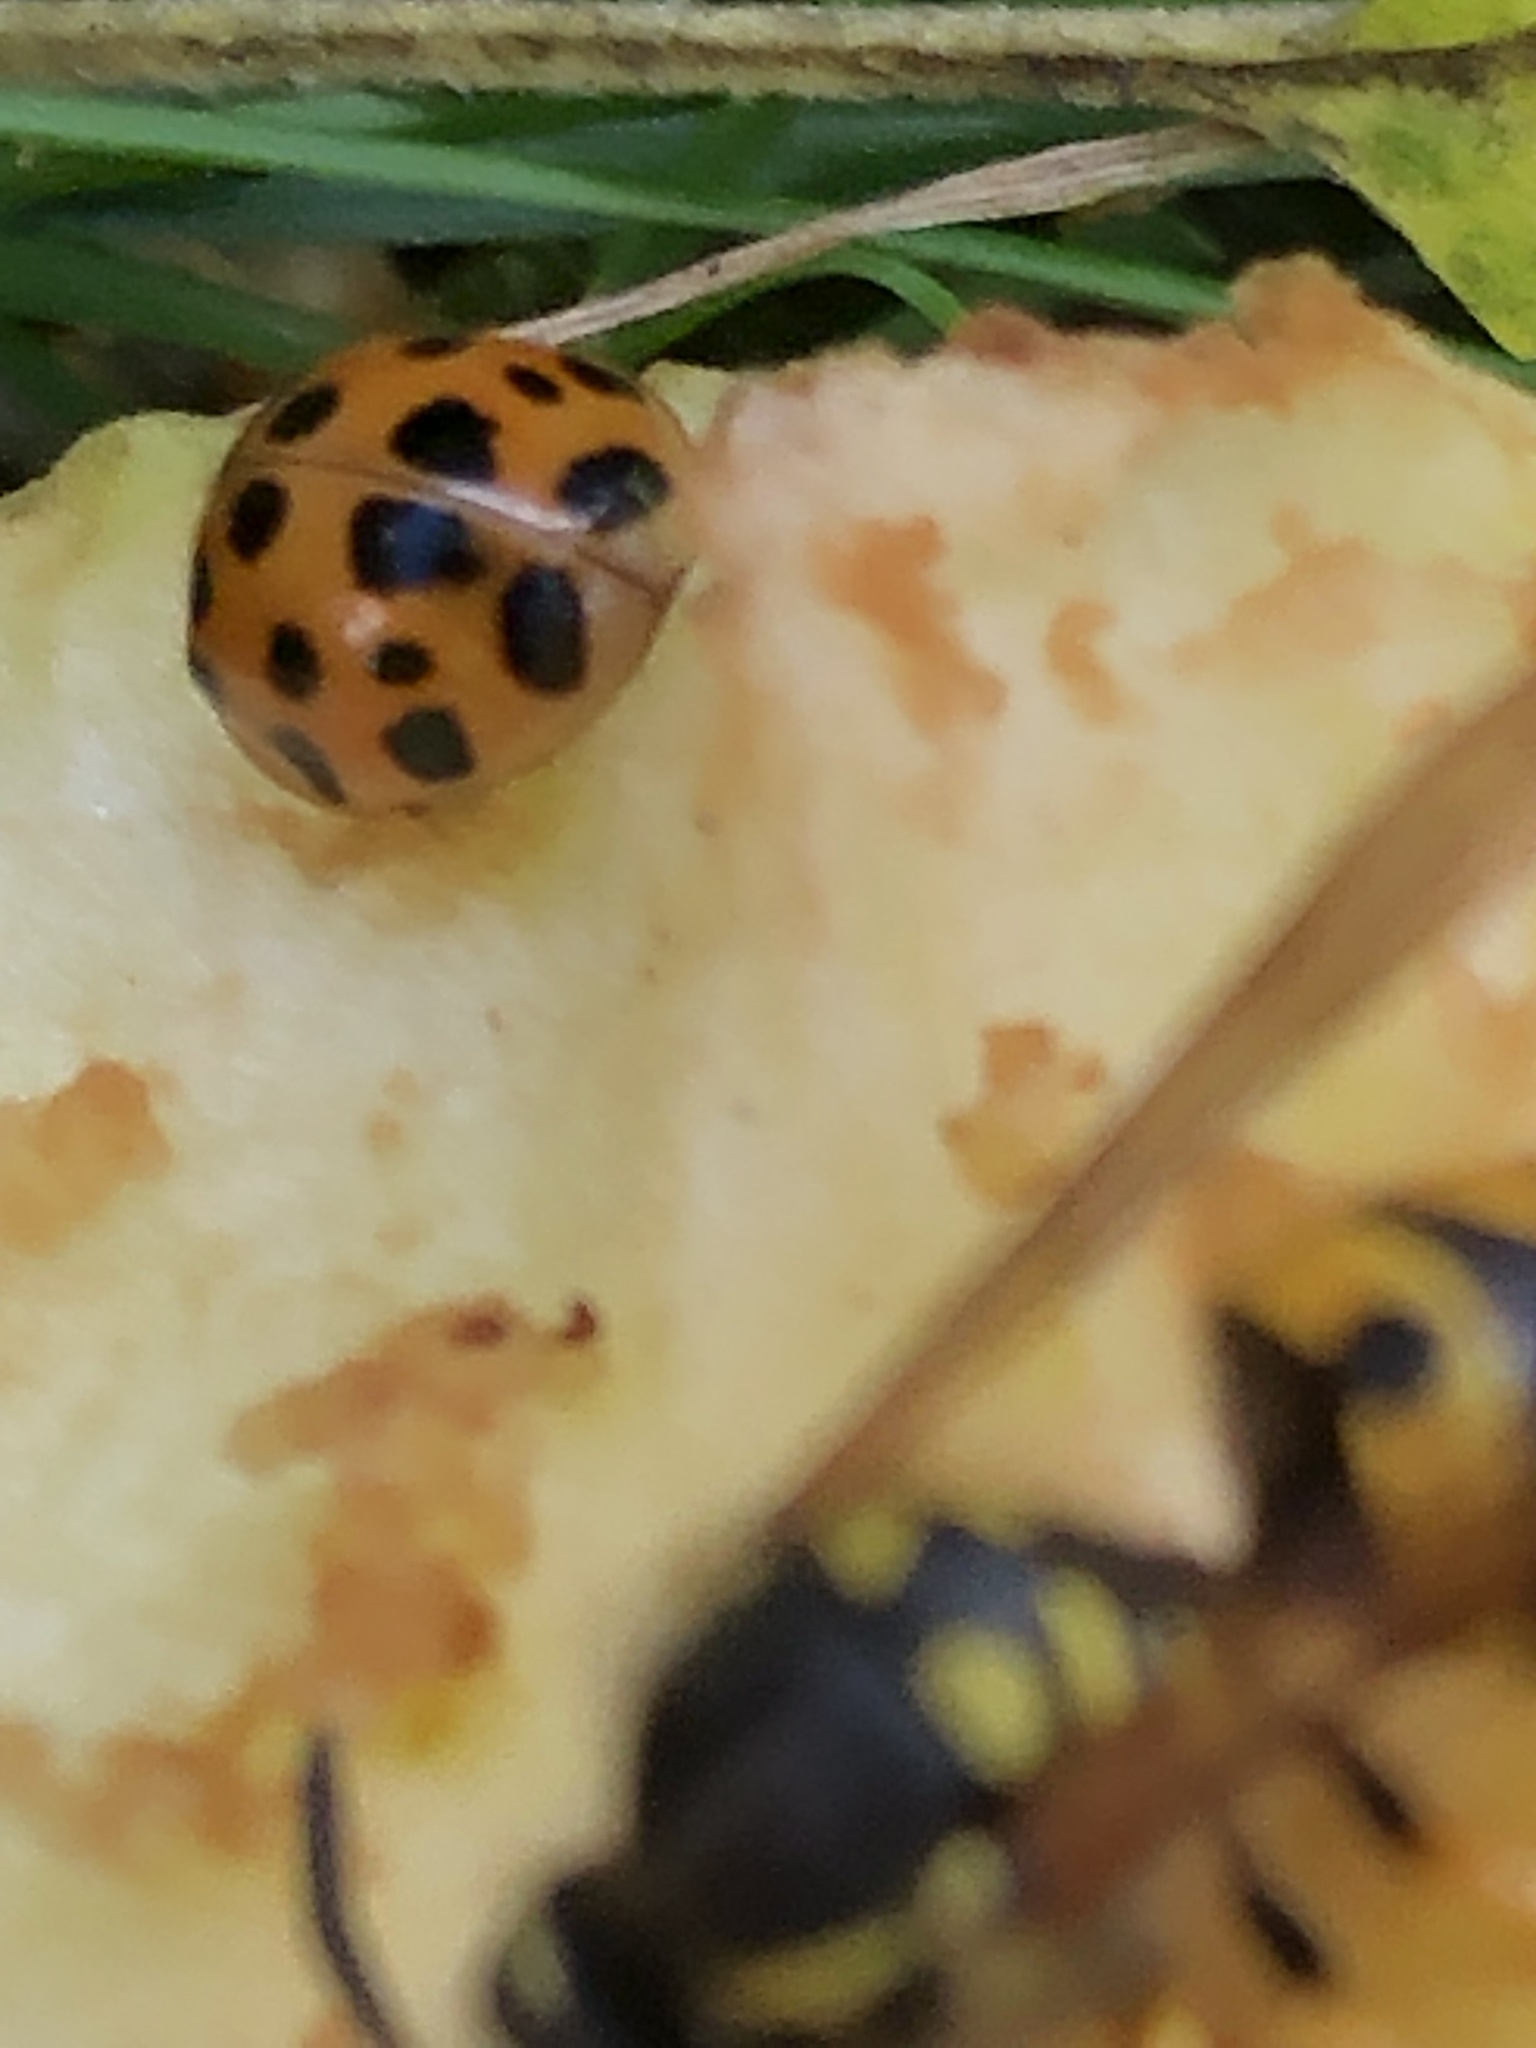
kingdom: Animalia
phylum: Arthropoda
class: Insecta
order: Coleoptera
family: Coccinellidae
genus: Harmonia
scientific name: Harmonia axyridis
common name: Harlequin ladybird
